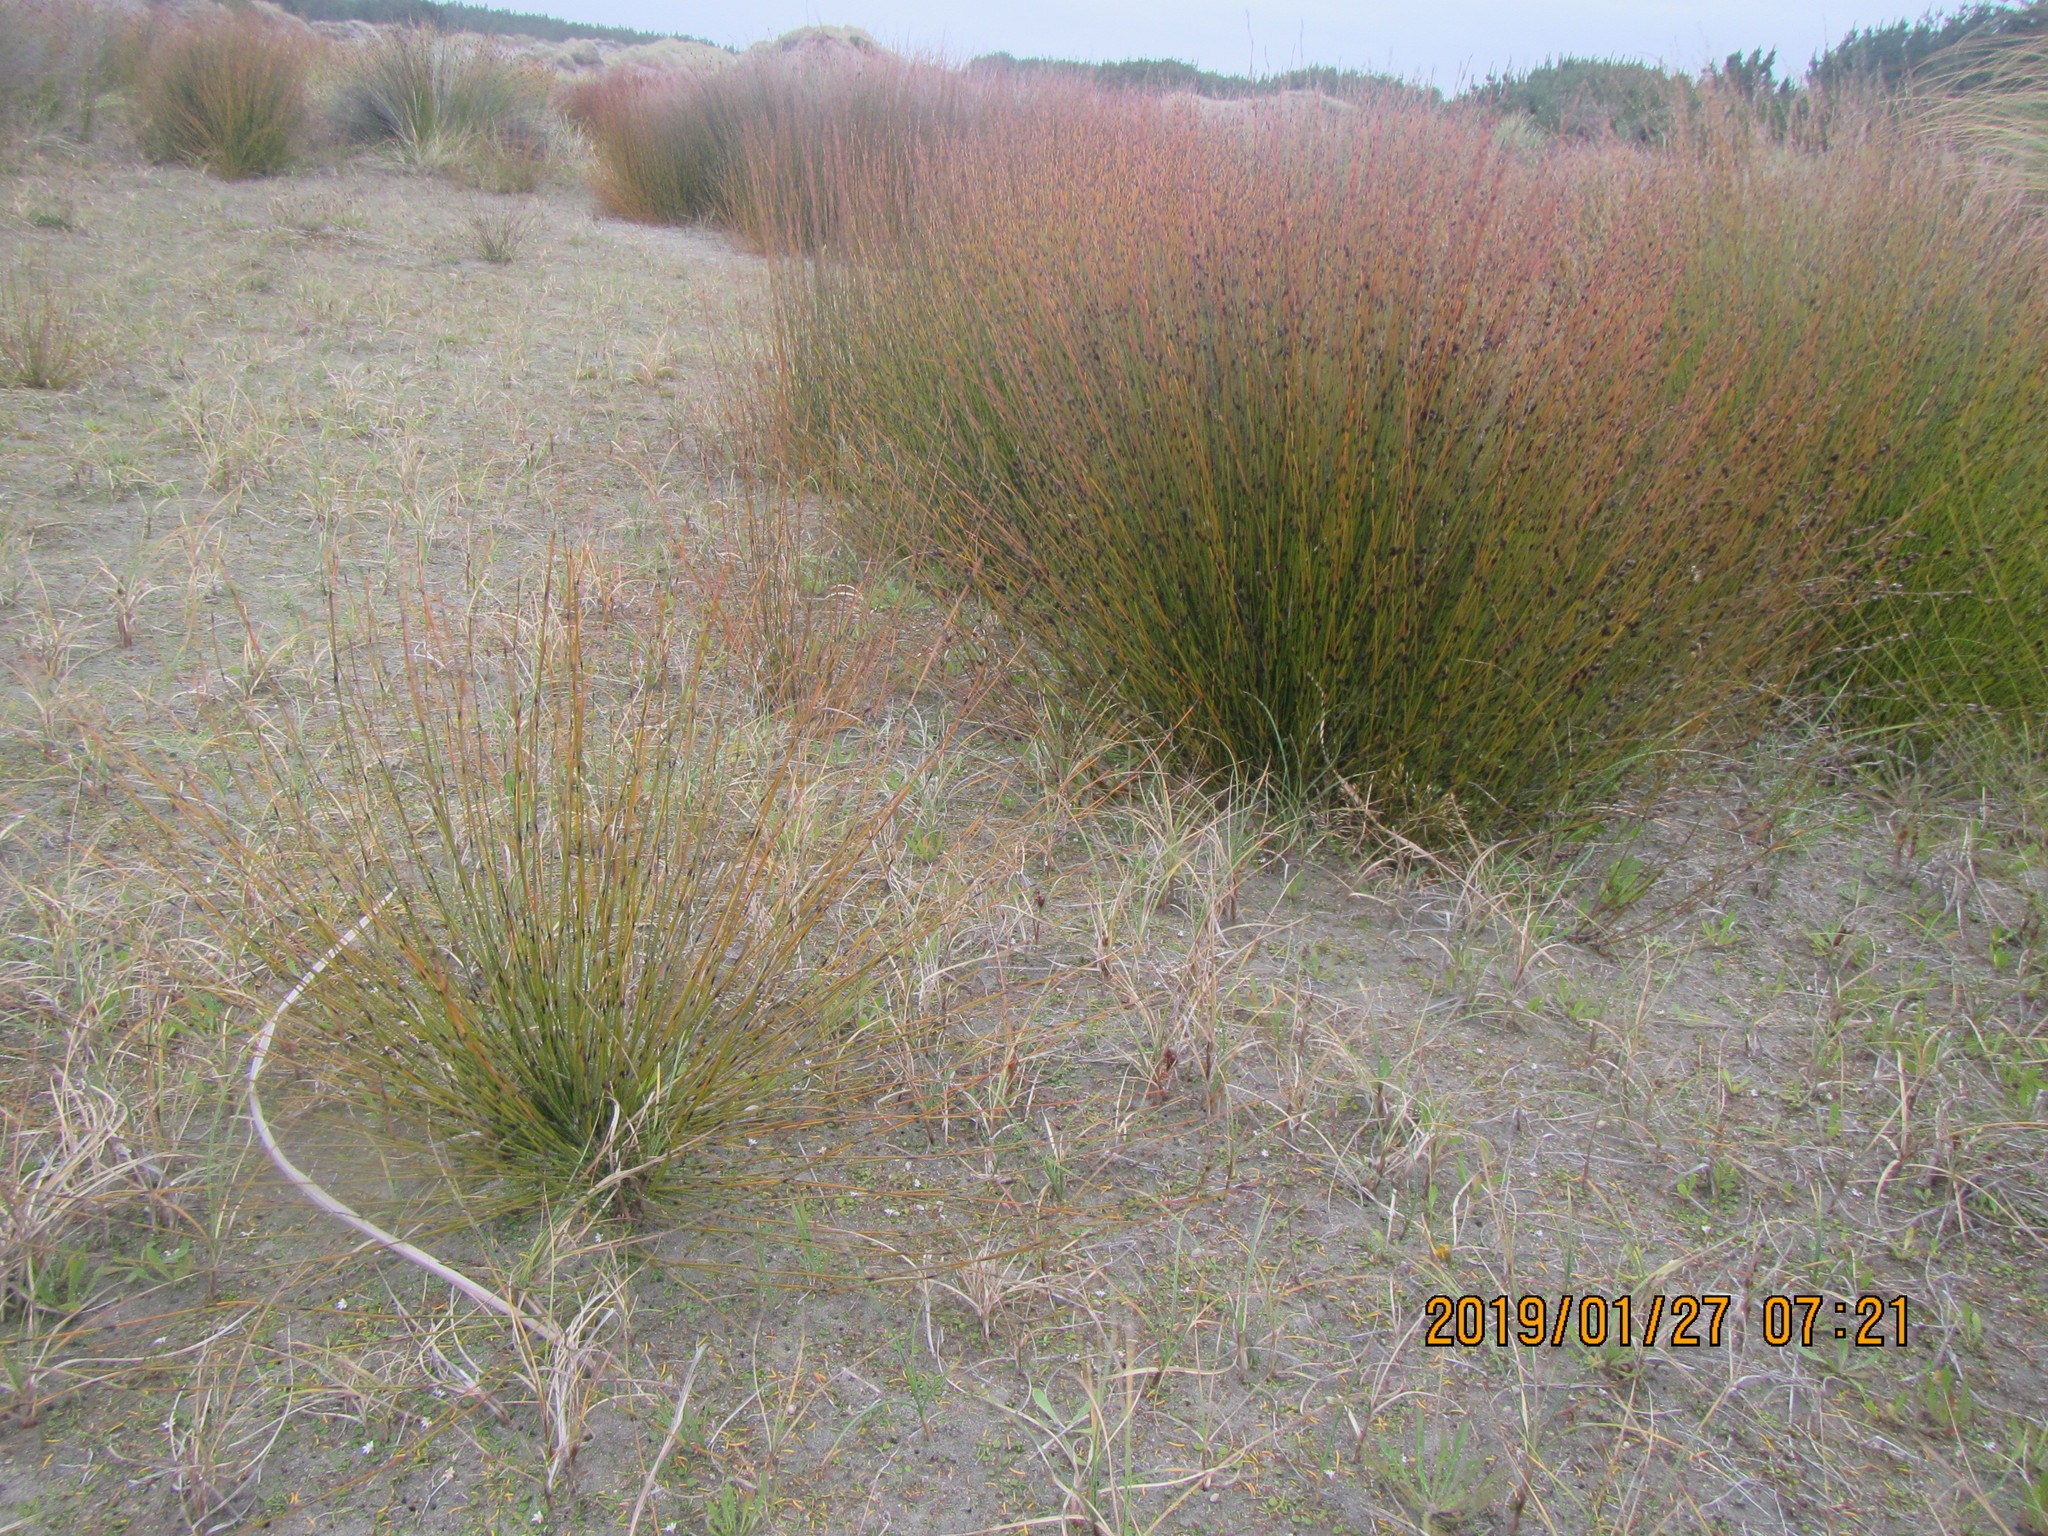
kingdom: Plantae
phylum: Tracheophyta
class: Liliopsida
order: Poales
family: Restionaceae
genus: Apodasmia
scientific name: Apodasmia similis
